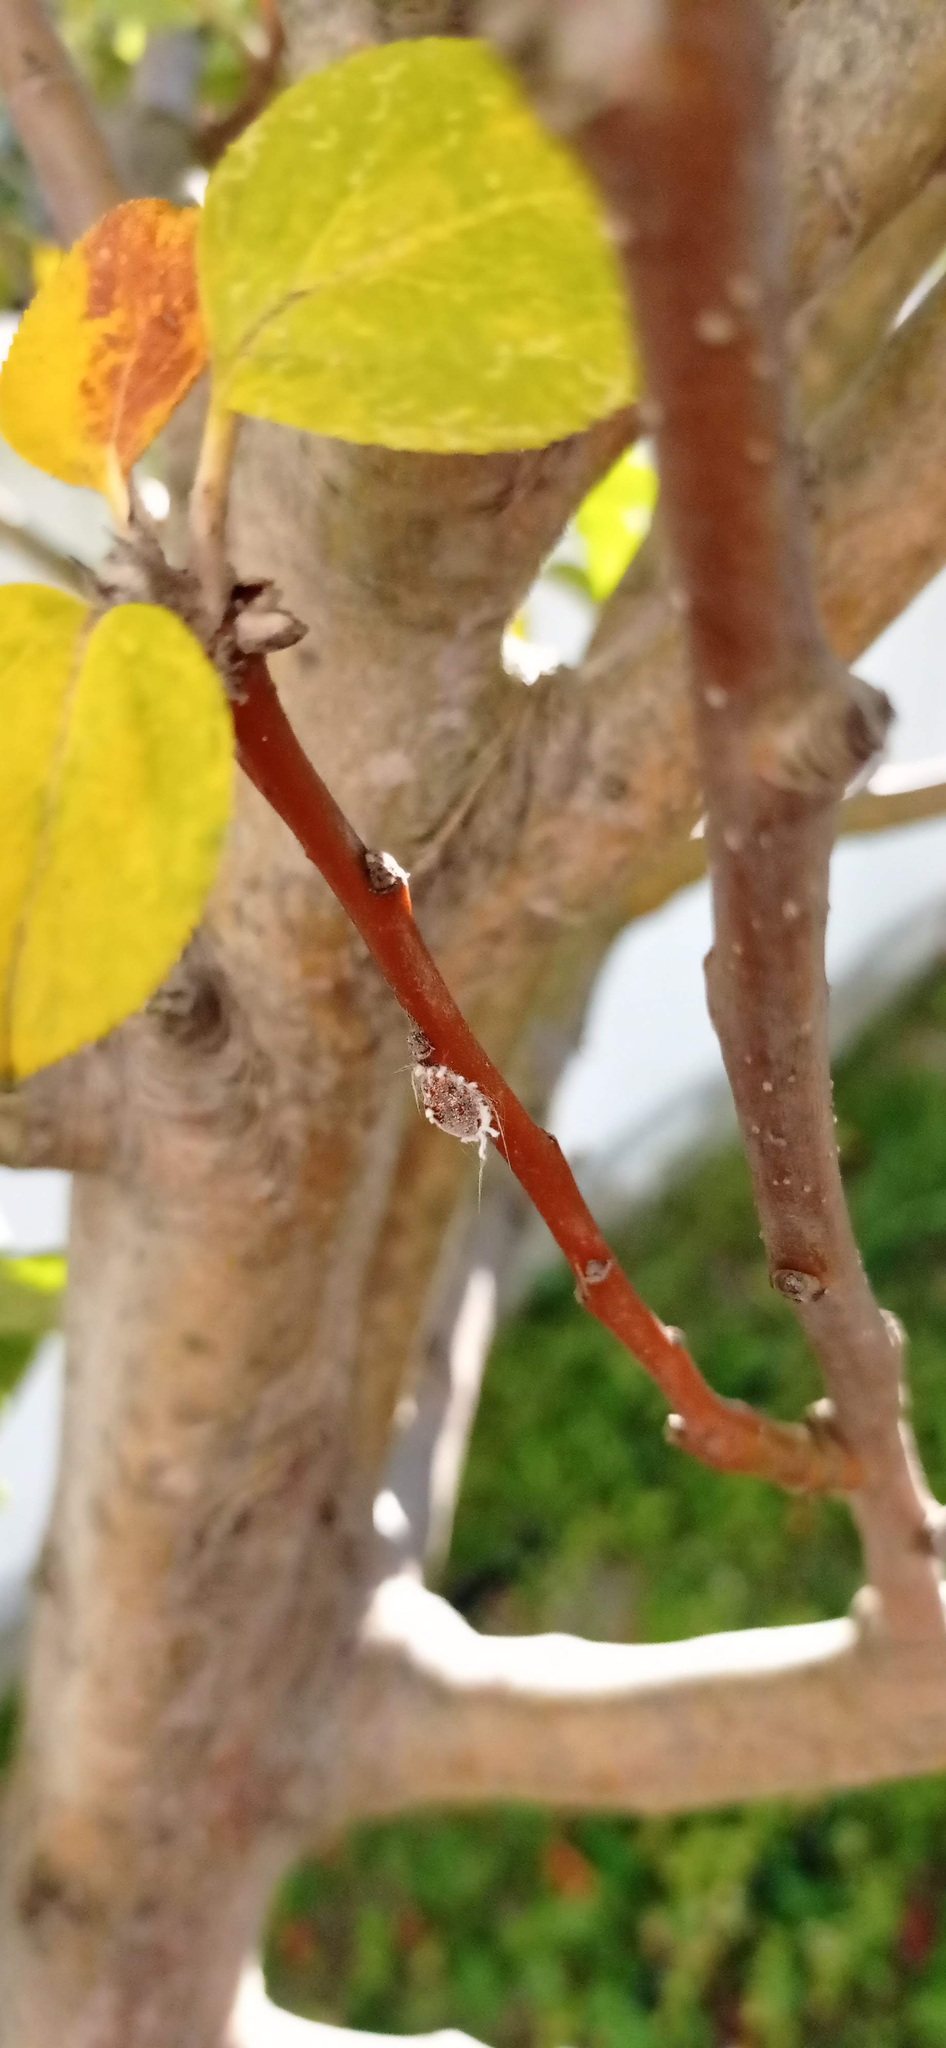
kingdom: Animalia
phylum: Arthropoda
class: Insecta
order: Hemiptera
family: Margarodidae
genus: Icerya
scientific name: Icerya purchasi
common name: Cottony cushion scale
